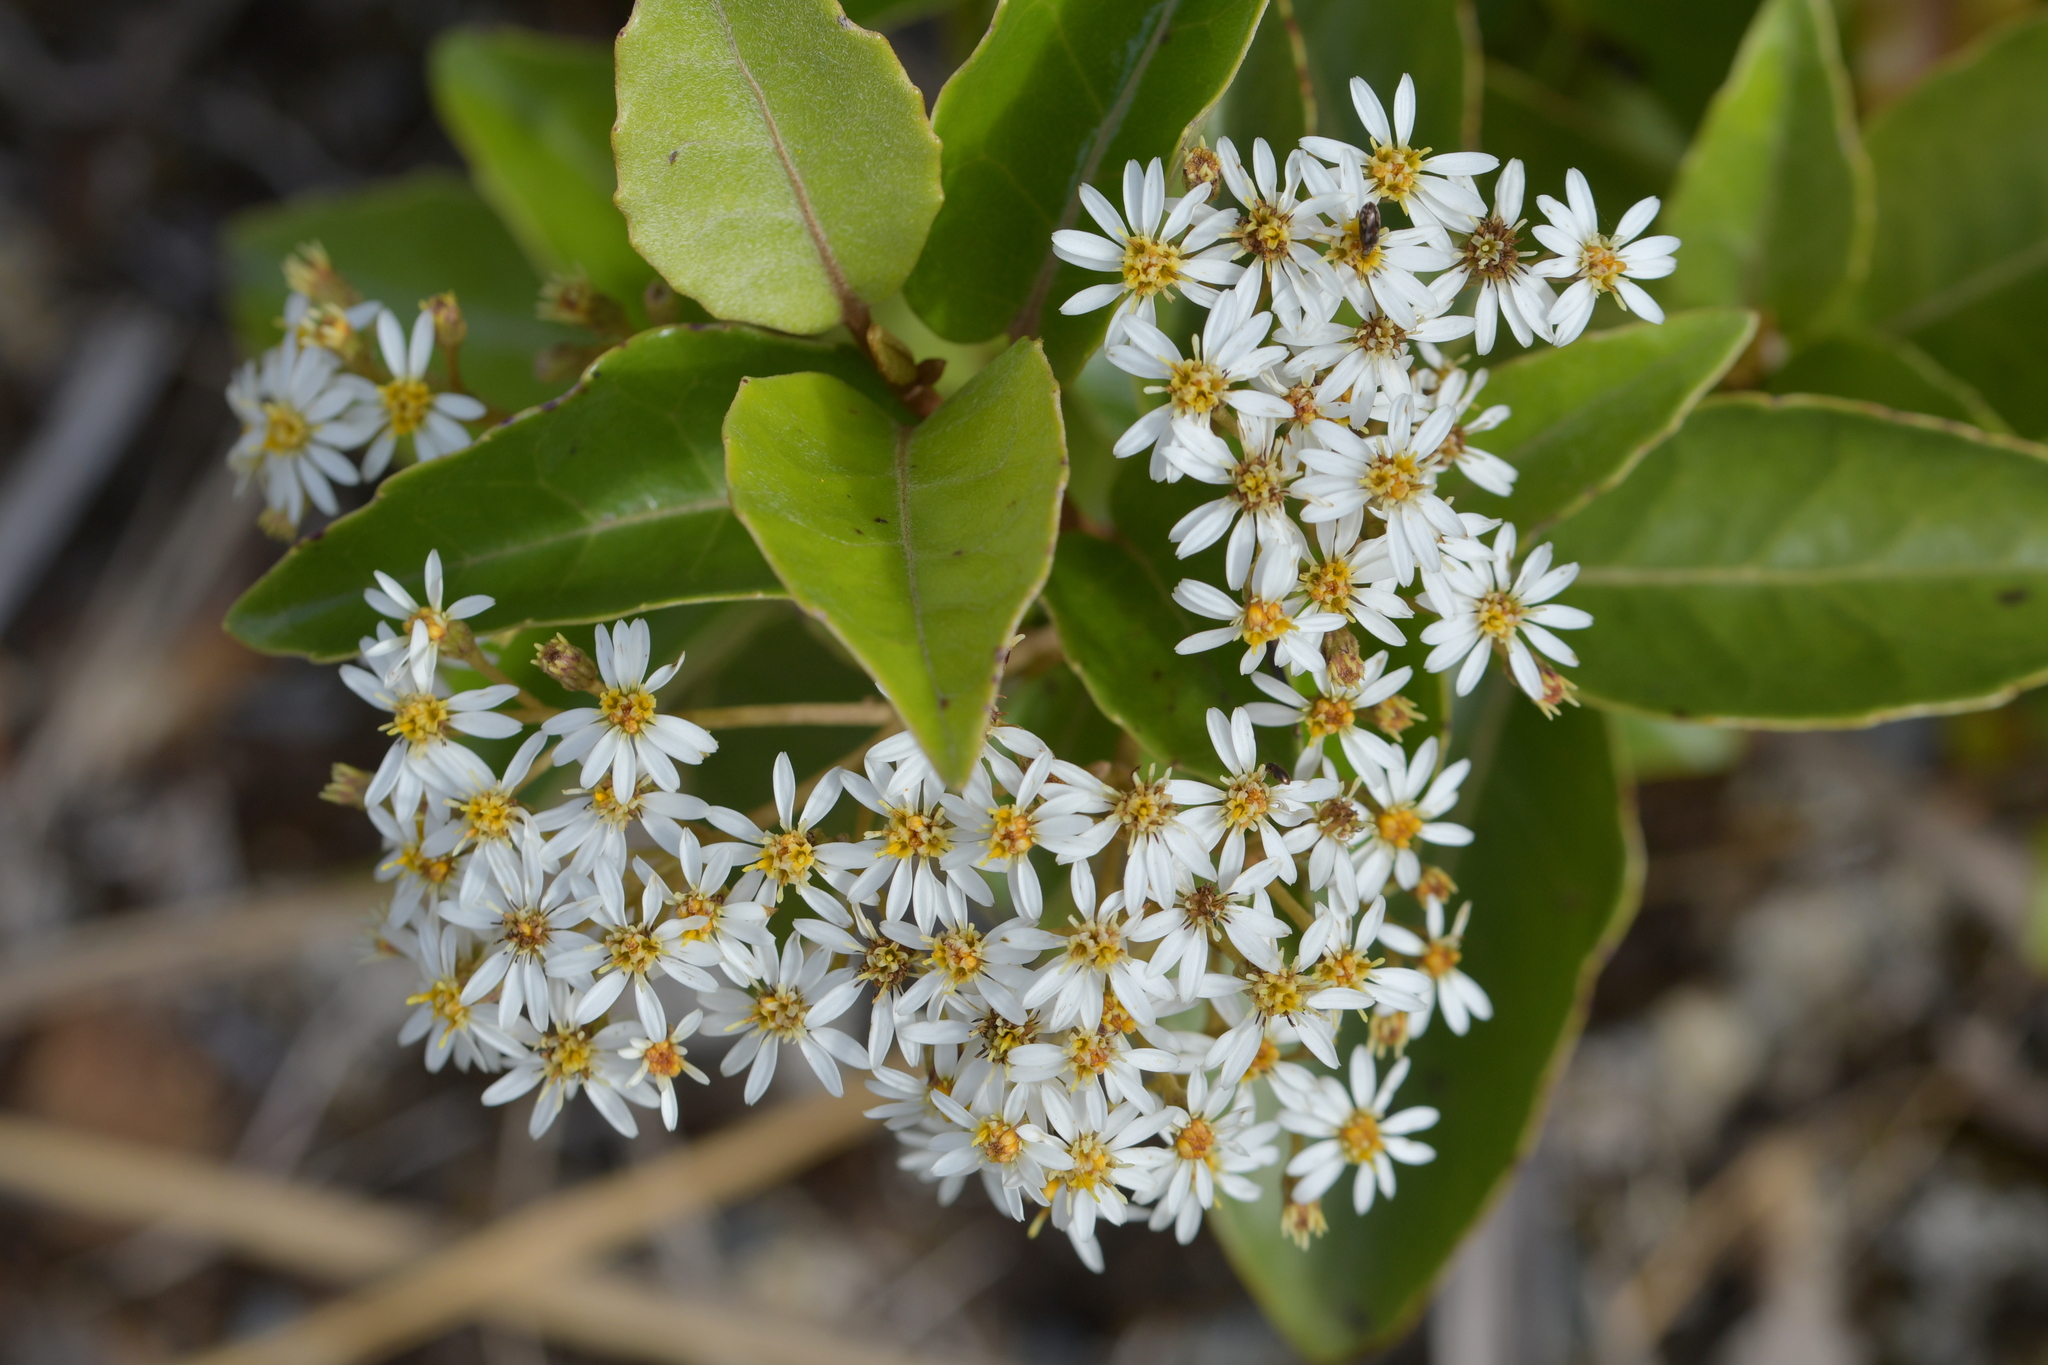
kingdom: Plantae
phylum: Tracheophyta
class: Magnoliopsida
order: Asterales
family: Asteraceae
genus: Olearia
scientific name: Olearia arborescens
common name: Glossy tree daisy
